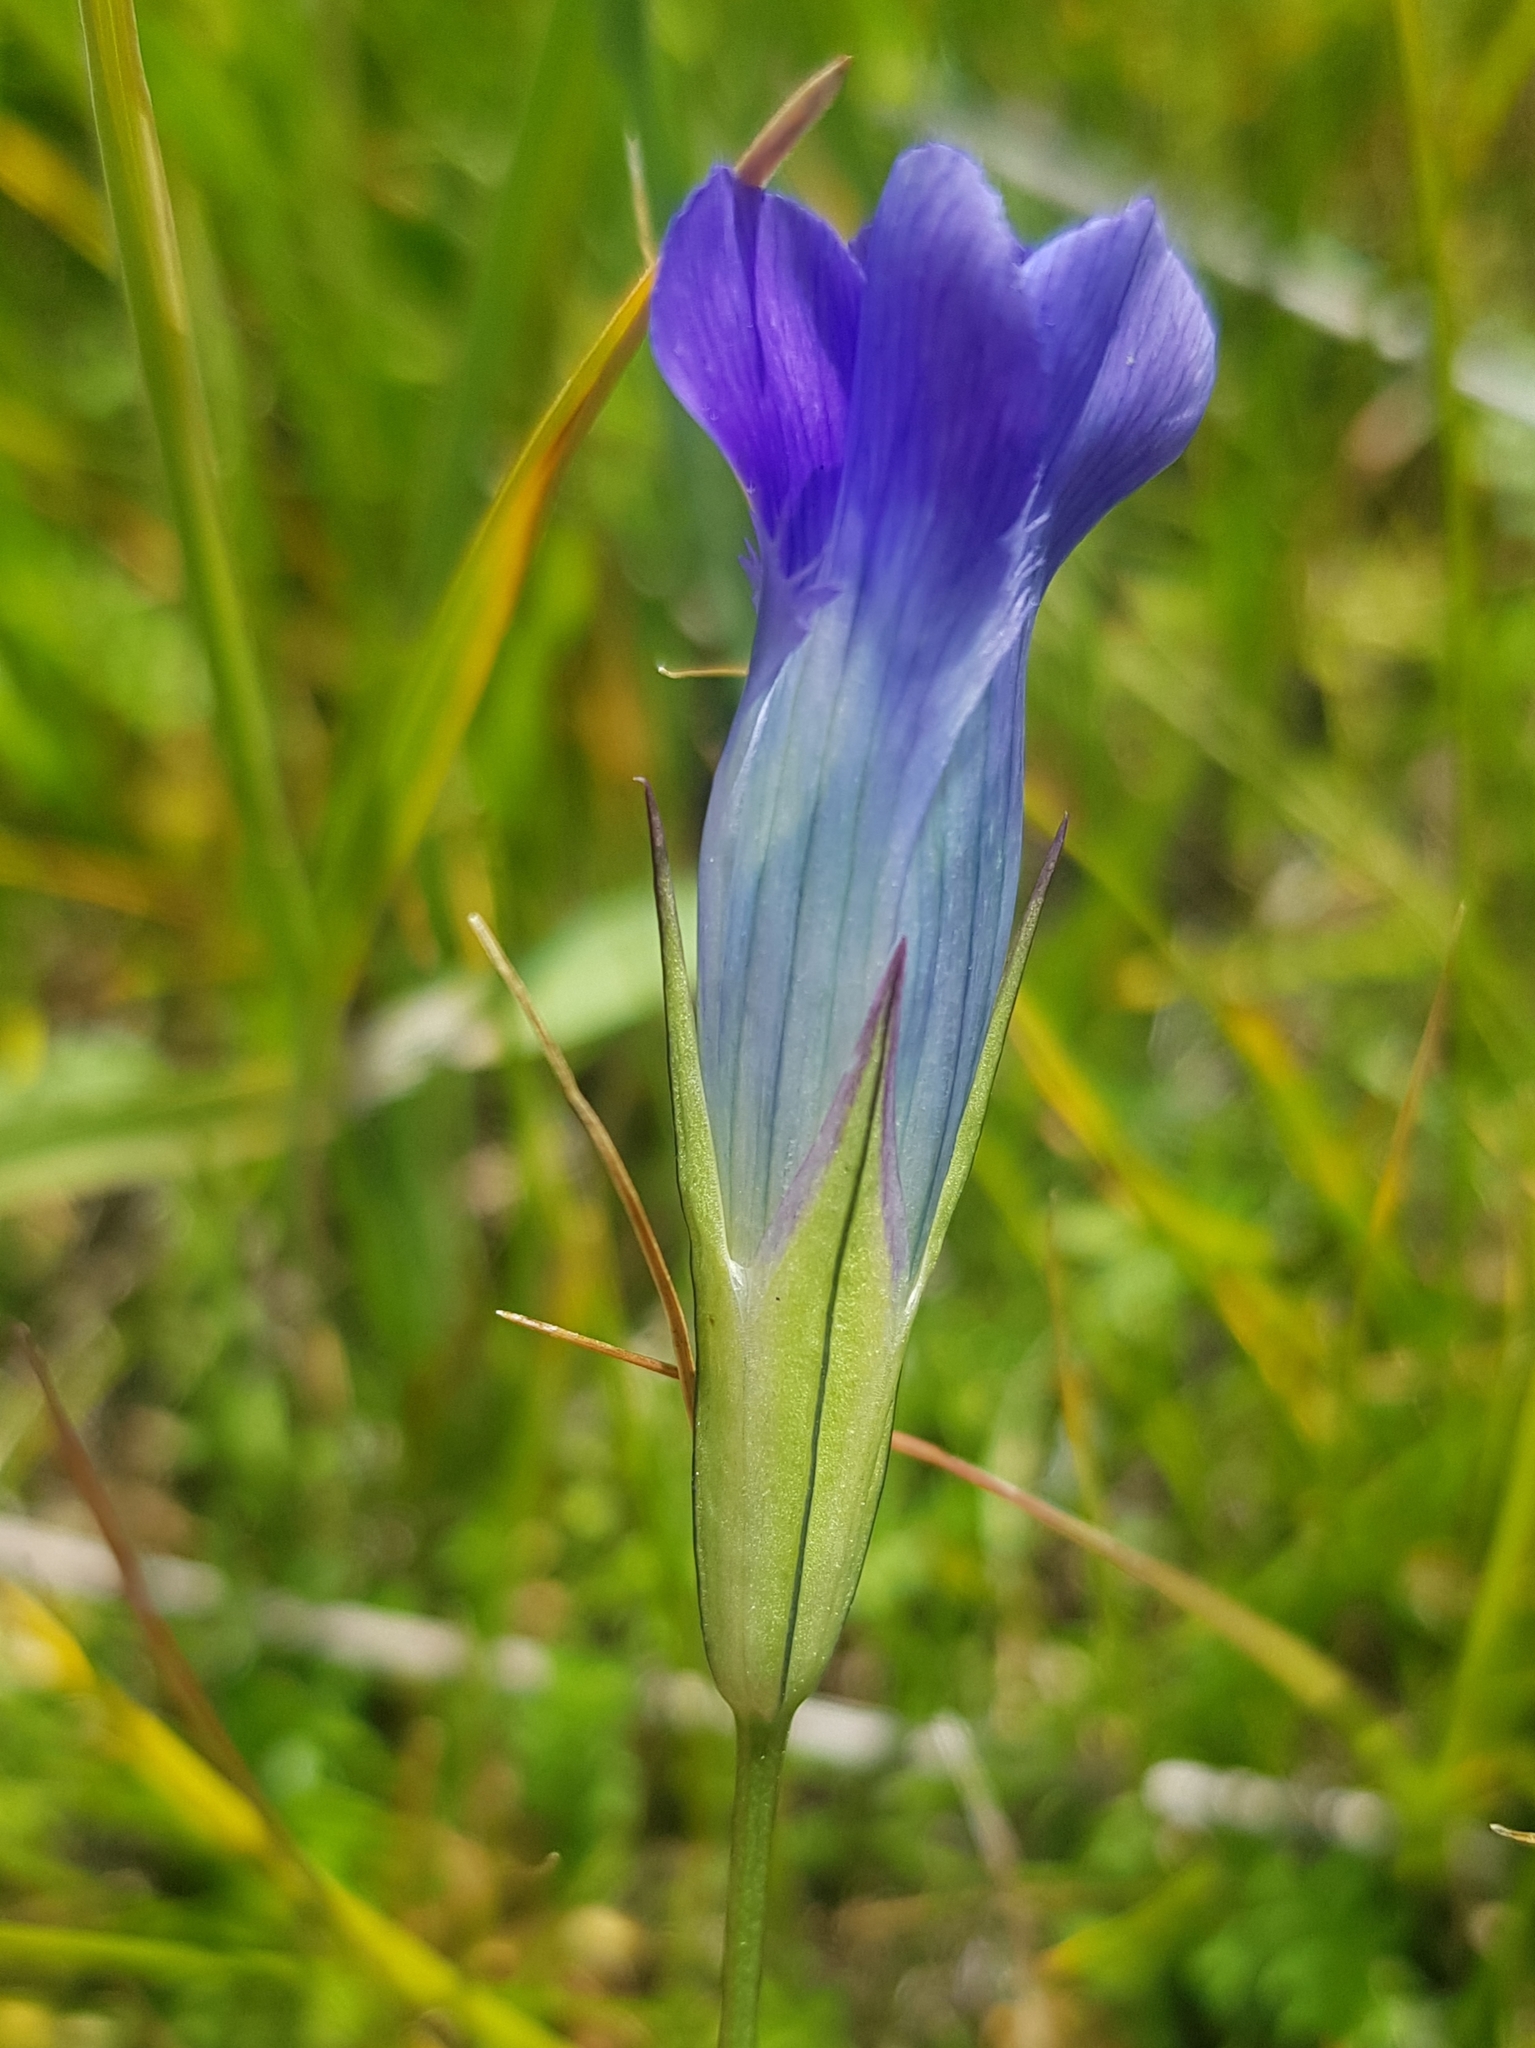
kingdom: Plantae
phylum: Tracheophyta
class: Magnoliopsida
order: Gentianales
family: Gentianaceae
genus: Gentianopsis
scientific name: Gentianopsis barbata
